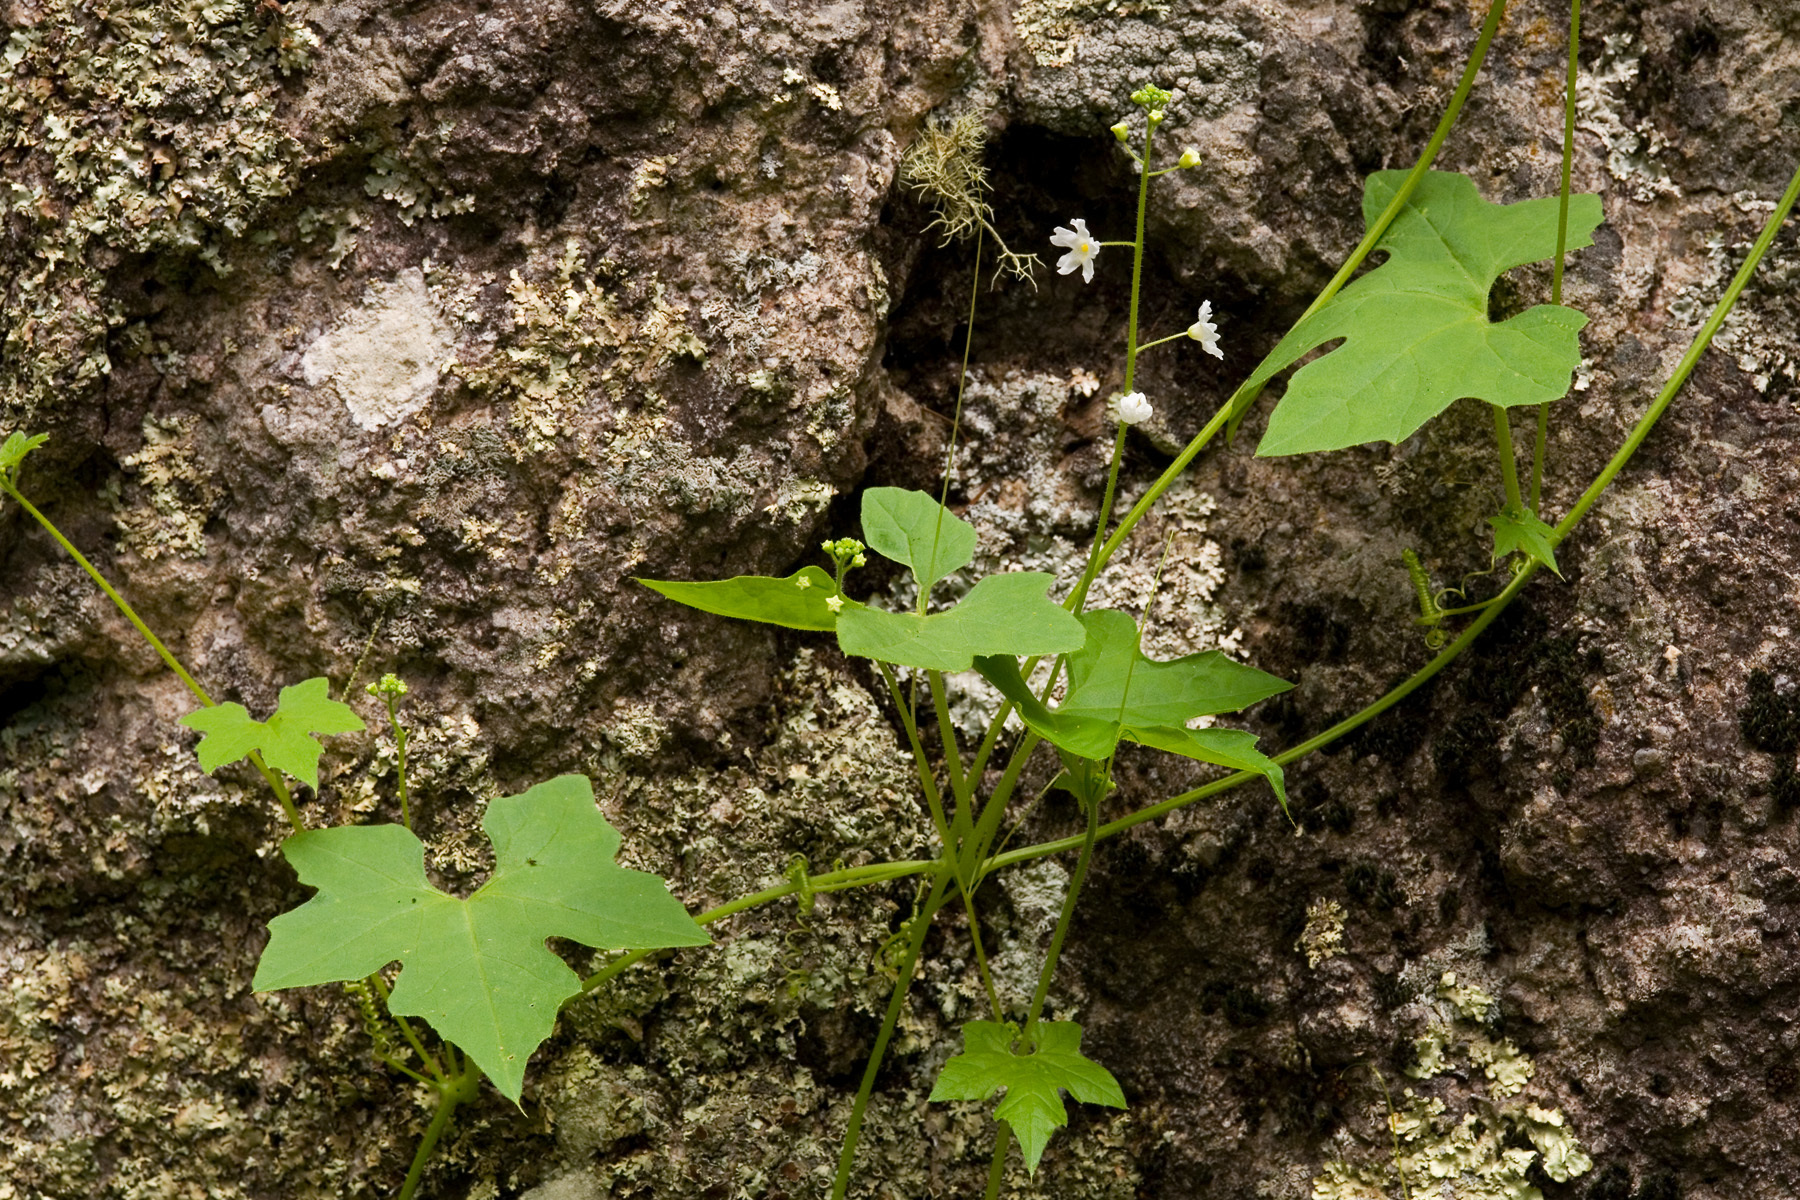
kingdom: Plantae
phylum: Tracheophyta
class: Magnoliopsida
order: Cucurbitales
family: Cucurbitaceae
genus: Echinopepon
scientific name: Echinopepon wrightii
